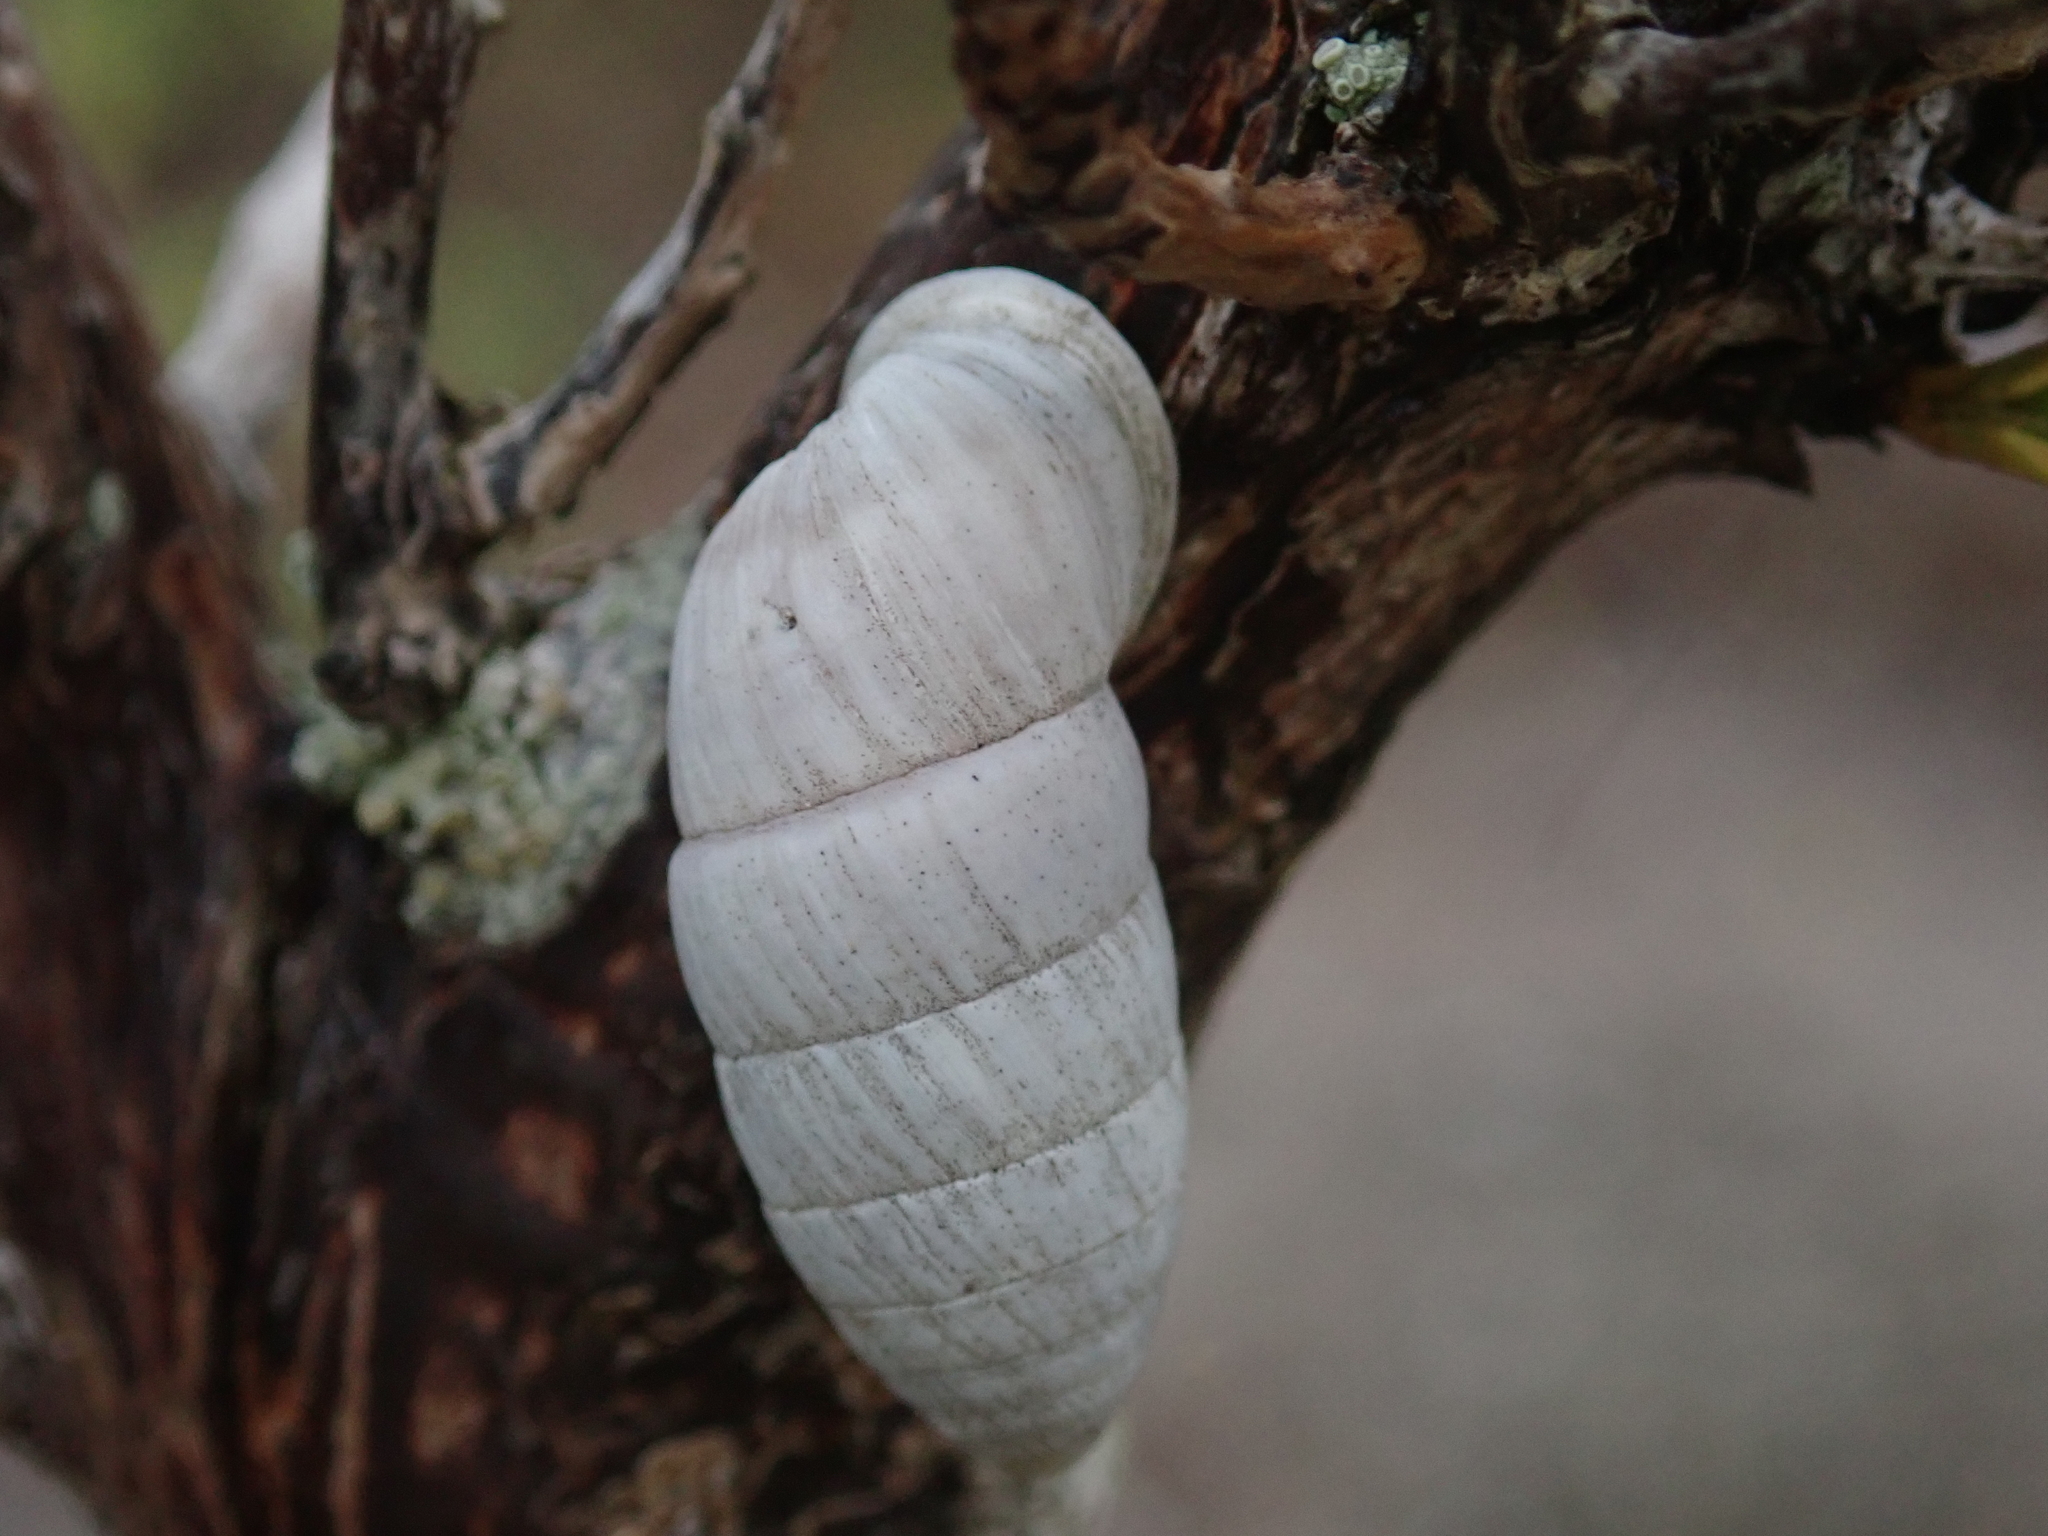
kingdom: Animalia
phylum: Mollusca
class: Gastropoda
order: Stylommatophora
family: Cerionidae
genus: Cerion
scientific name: Cerion incanum
